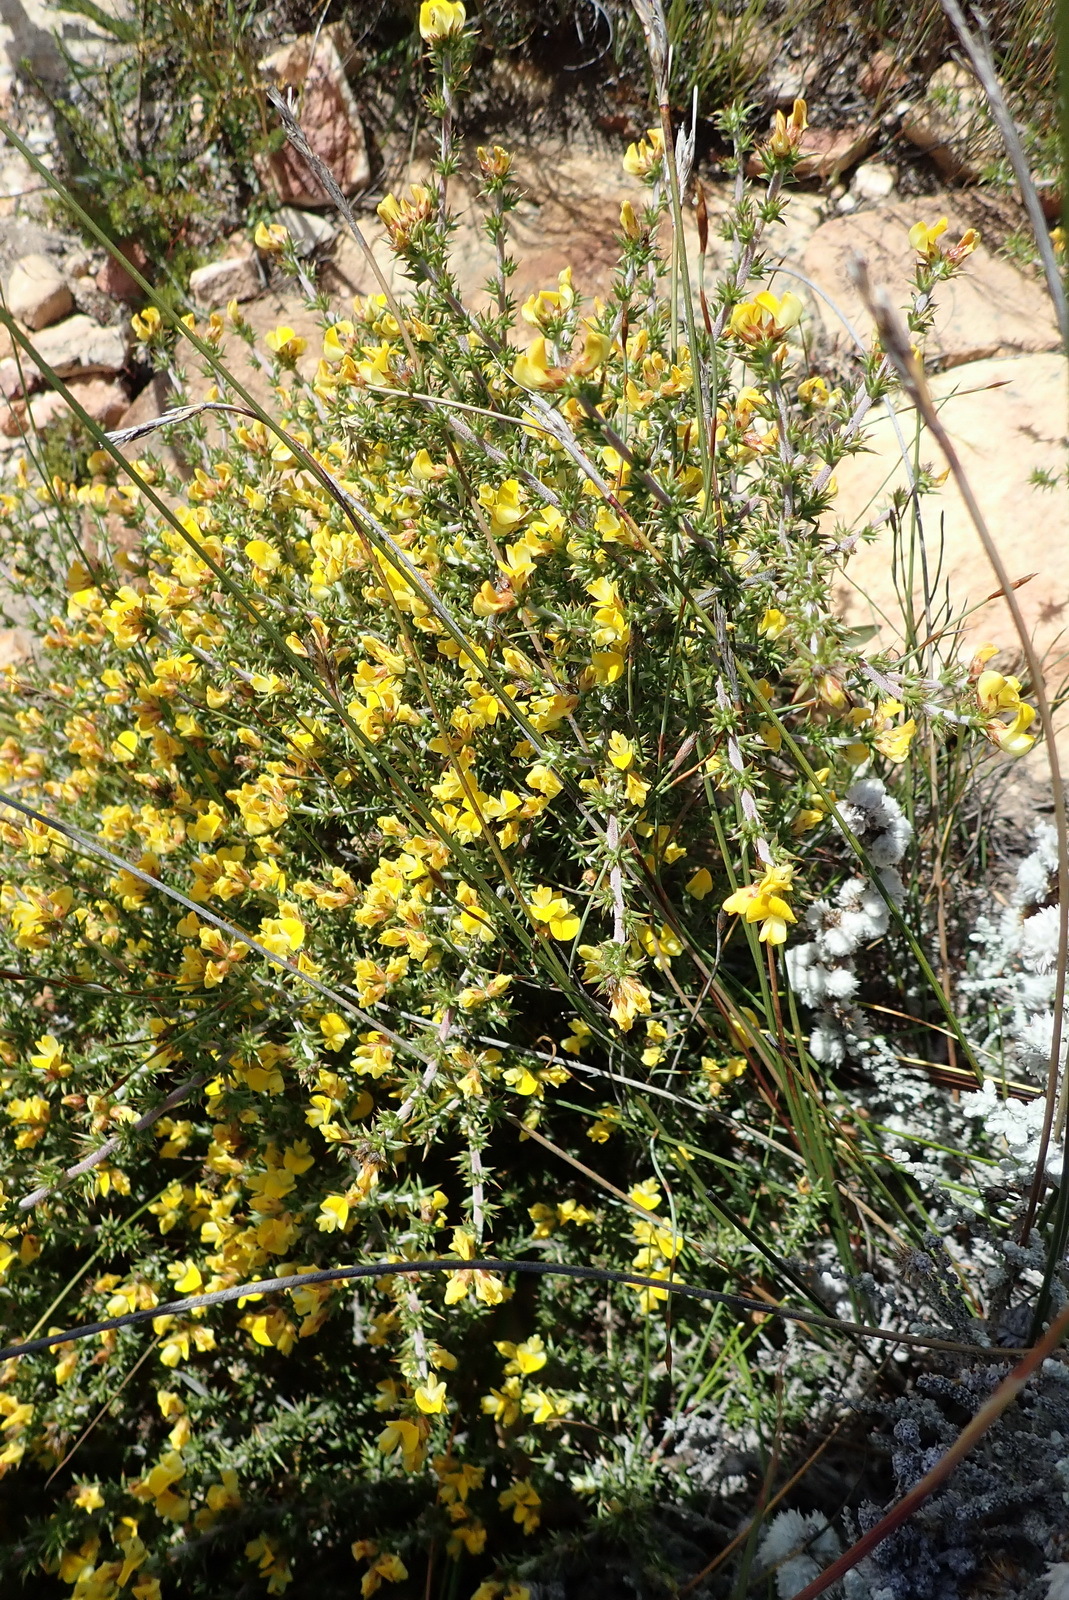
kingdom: Plantae
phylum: Tracheophyta
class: Magnoliopsida
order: Fabales
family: Fabaceae
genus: Aspalathus
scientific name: Aspalathus aciphylla
